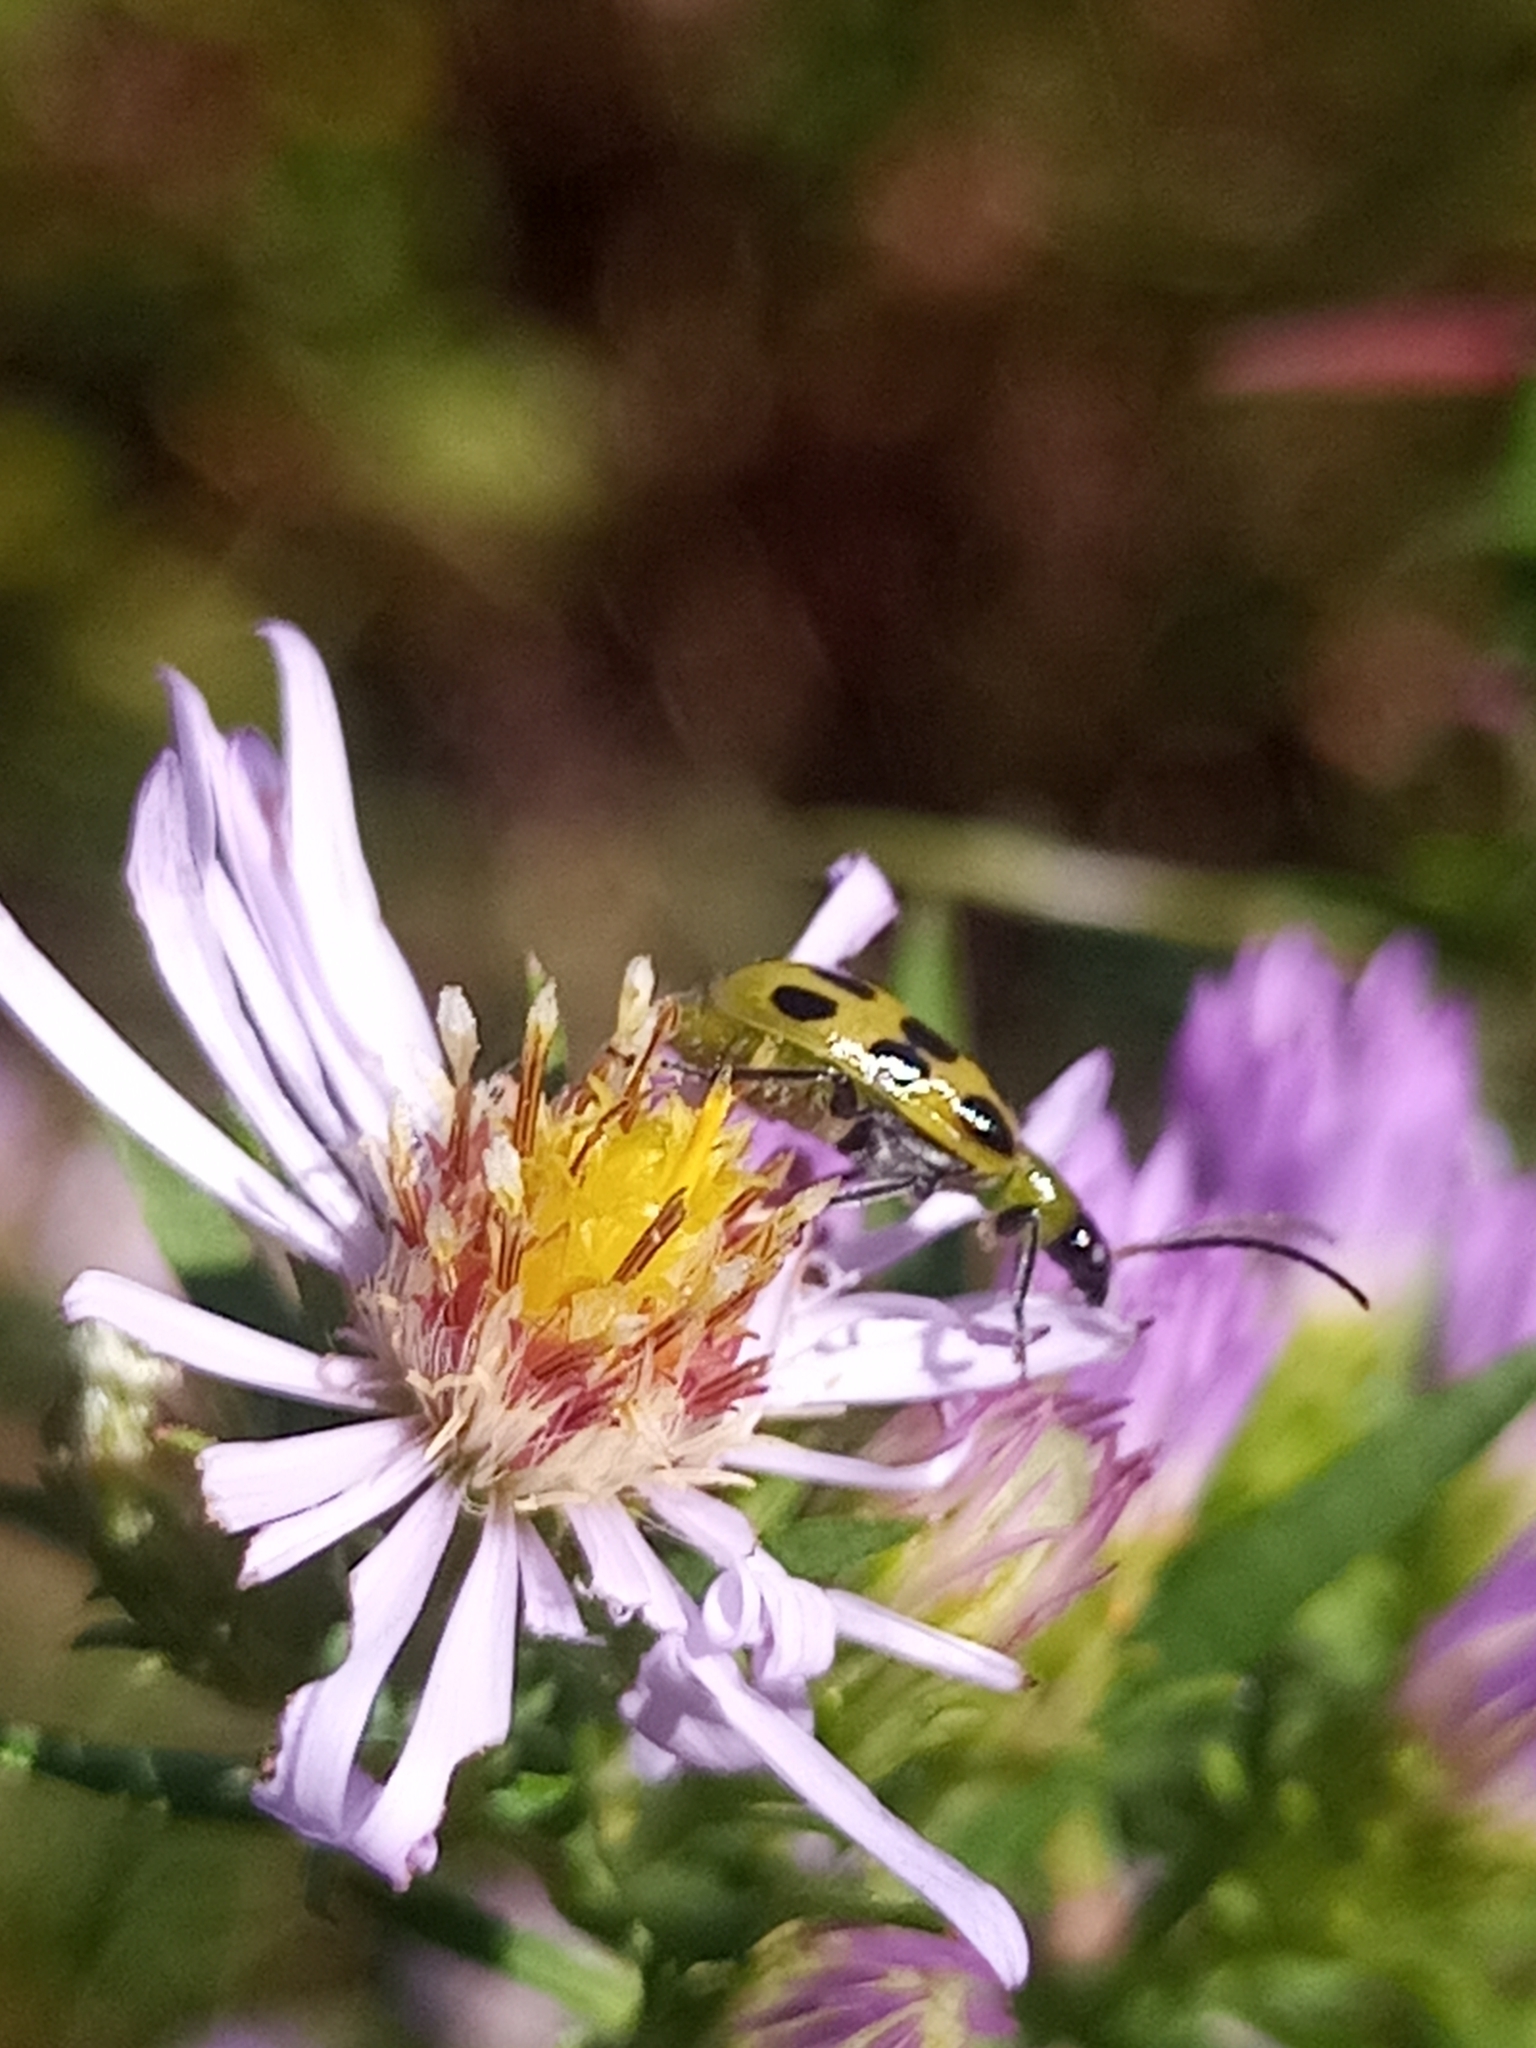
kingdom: Animalia
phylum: Arthropoda
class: Insecta
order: Coleoptera
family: Chrysomelidae
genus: Diabrotica
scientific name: Diabrotica undecimpunctata
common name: Spotted cucumber beetle
